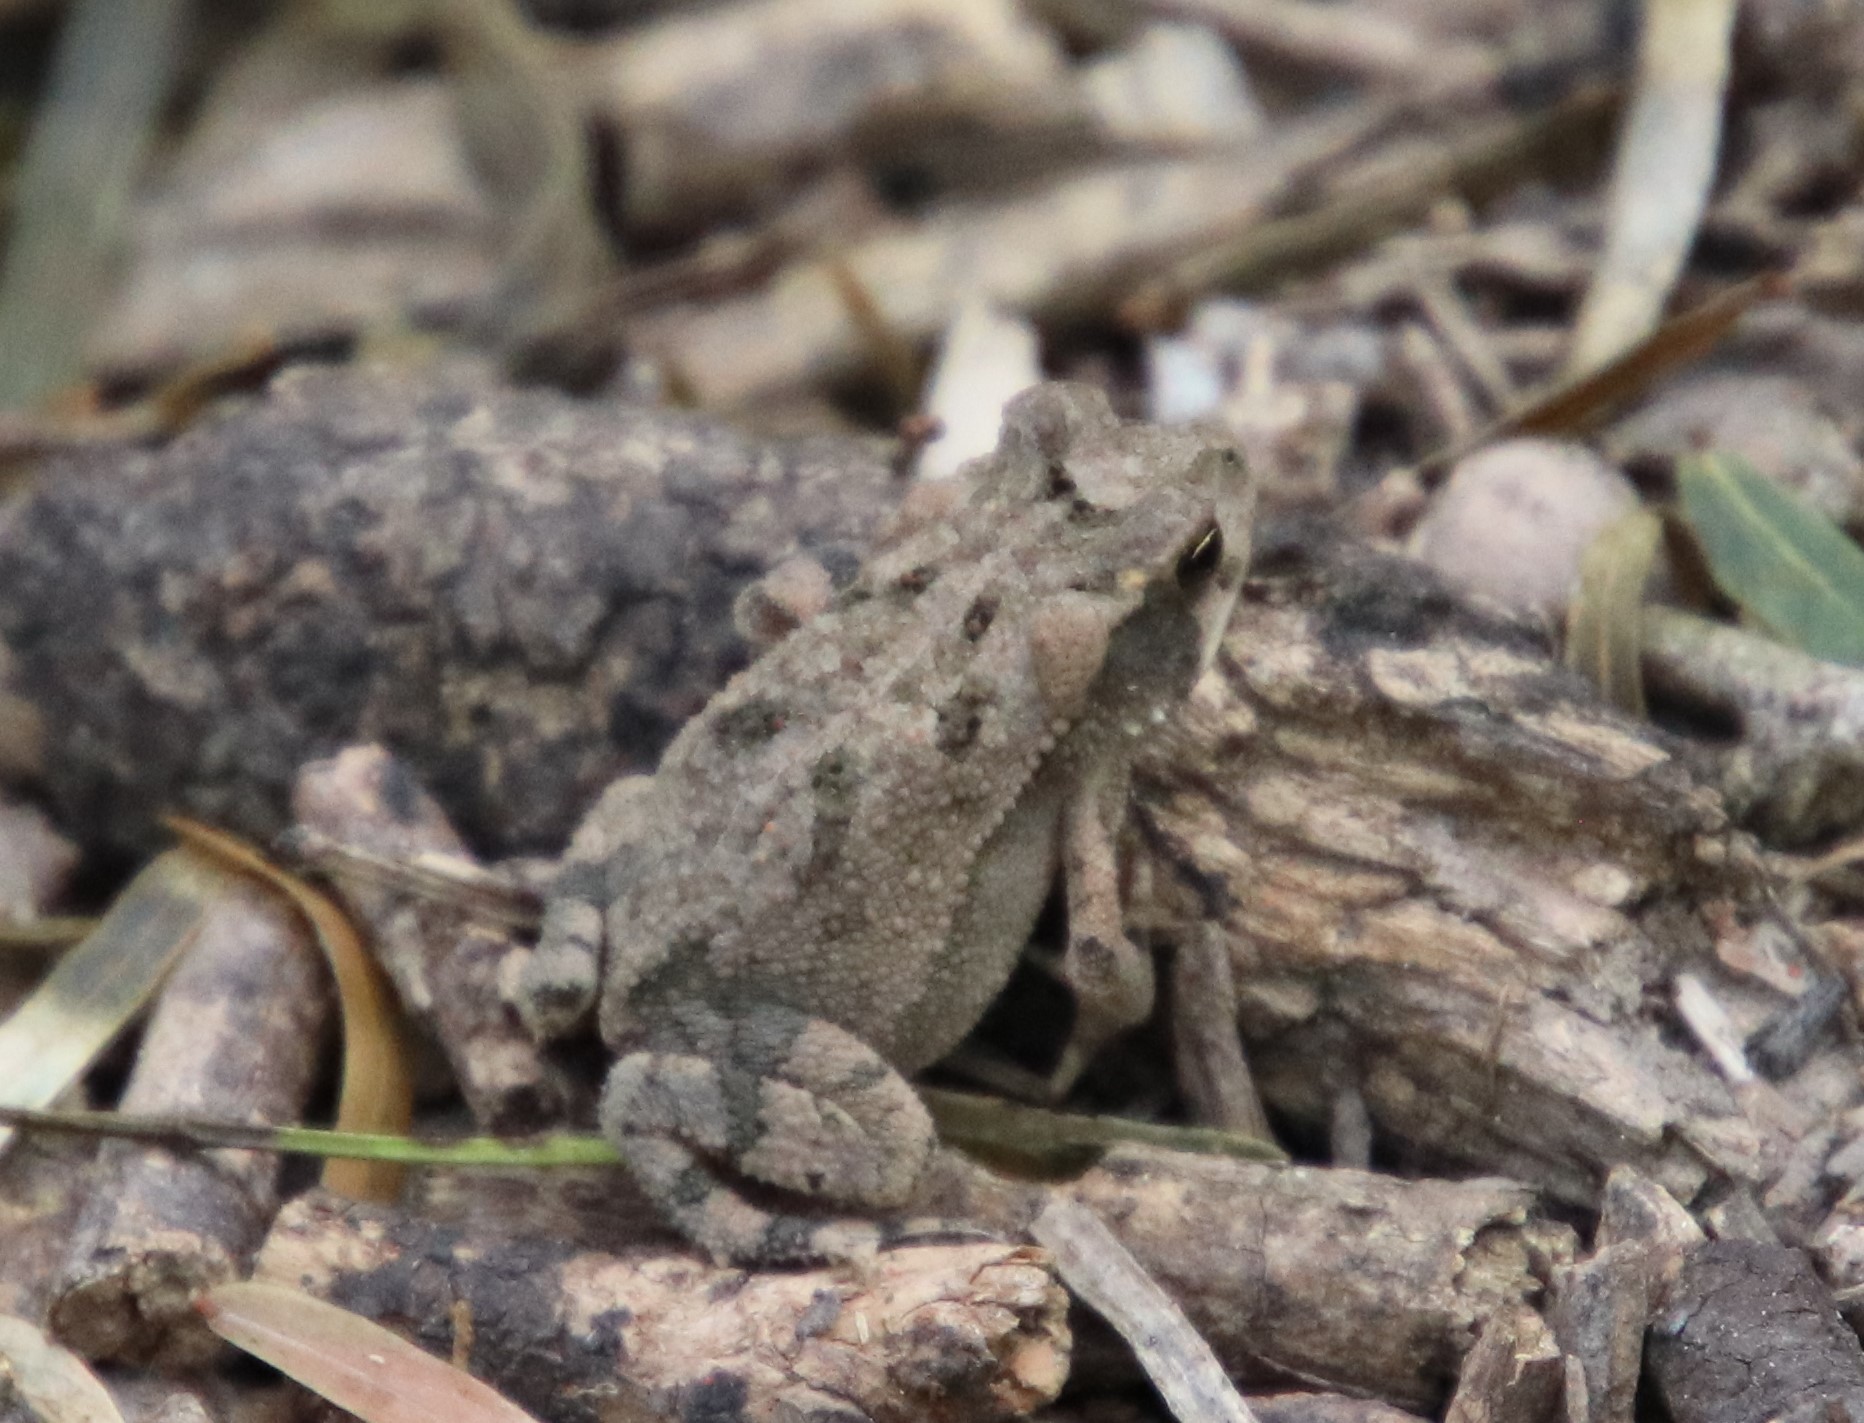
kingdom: Animalia
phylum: Chordata
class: Amphibia
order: Anura
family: Bufonidae
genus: Incilius
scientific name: Incilius nebulifer
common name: Gulf coast toad
